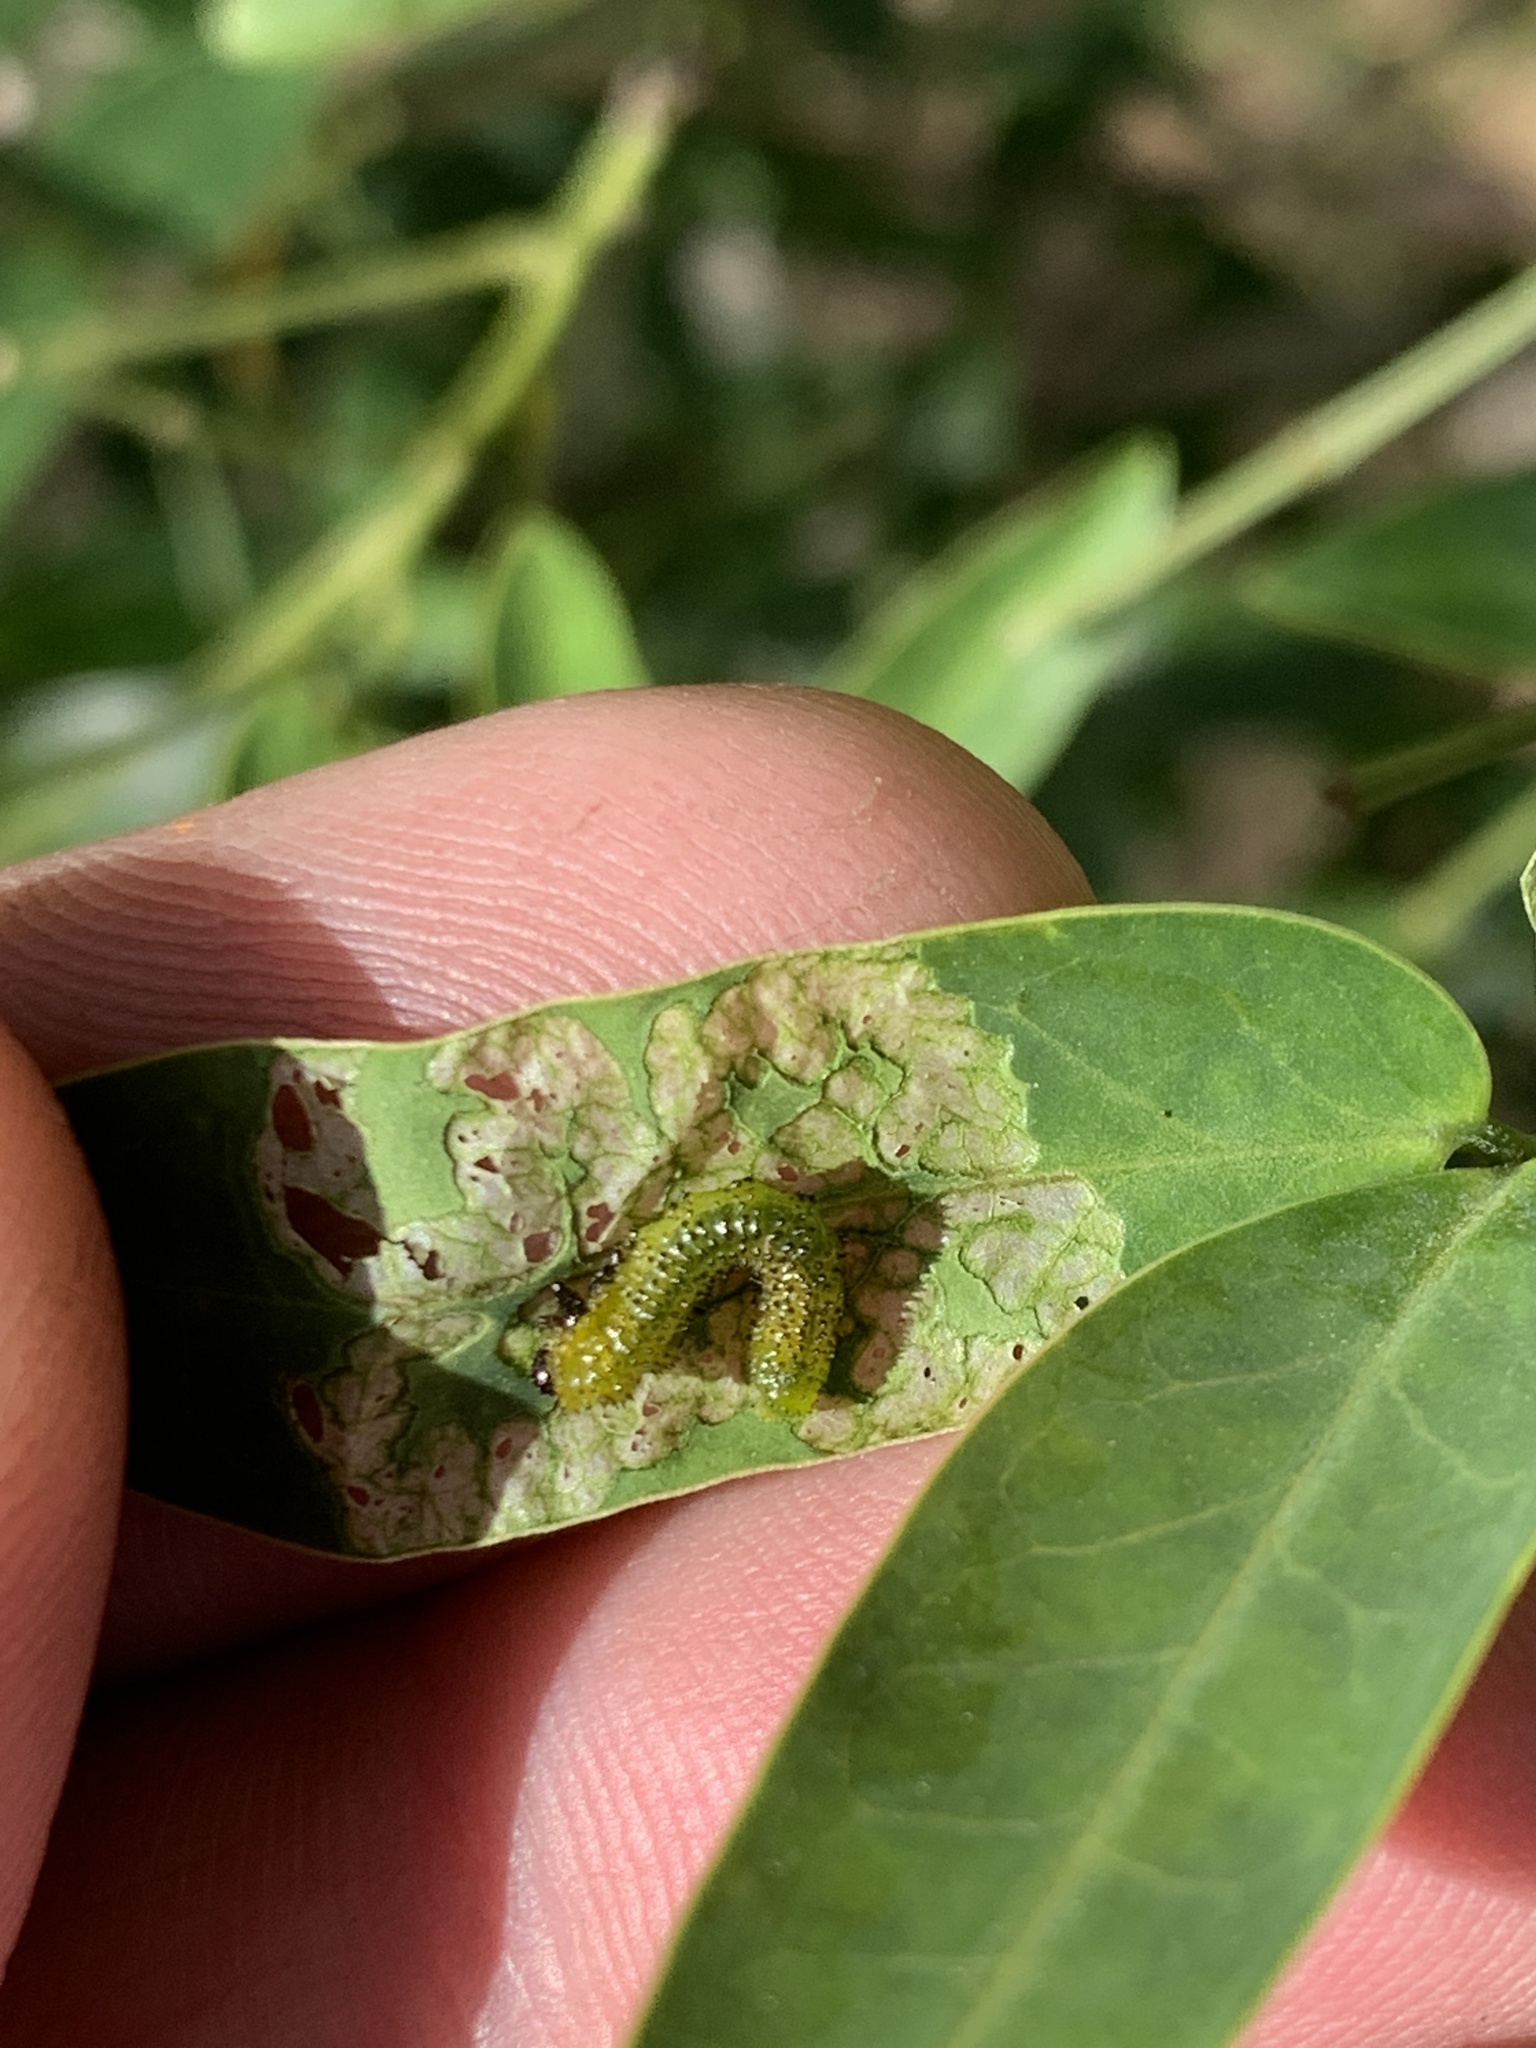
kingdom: Animalia
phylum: Arthropoda
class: Insecta
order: Hymenoptera
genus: Adurgoa
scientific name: Adurgoa
